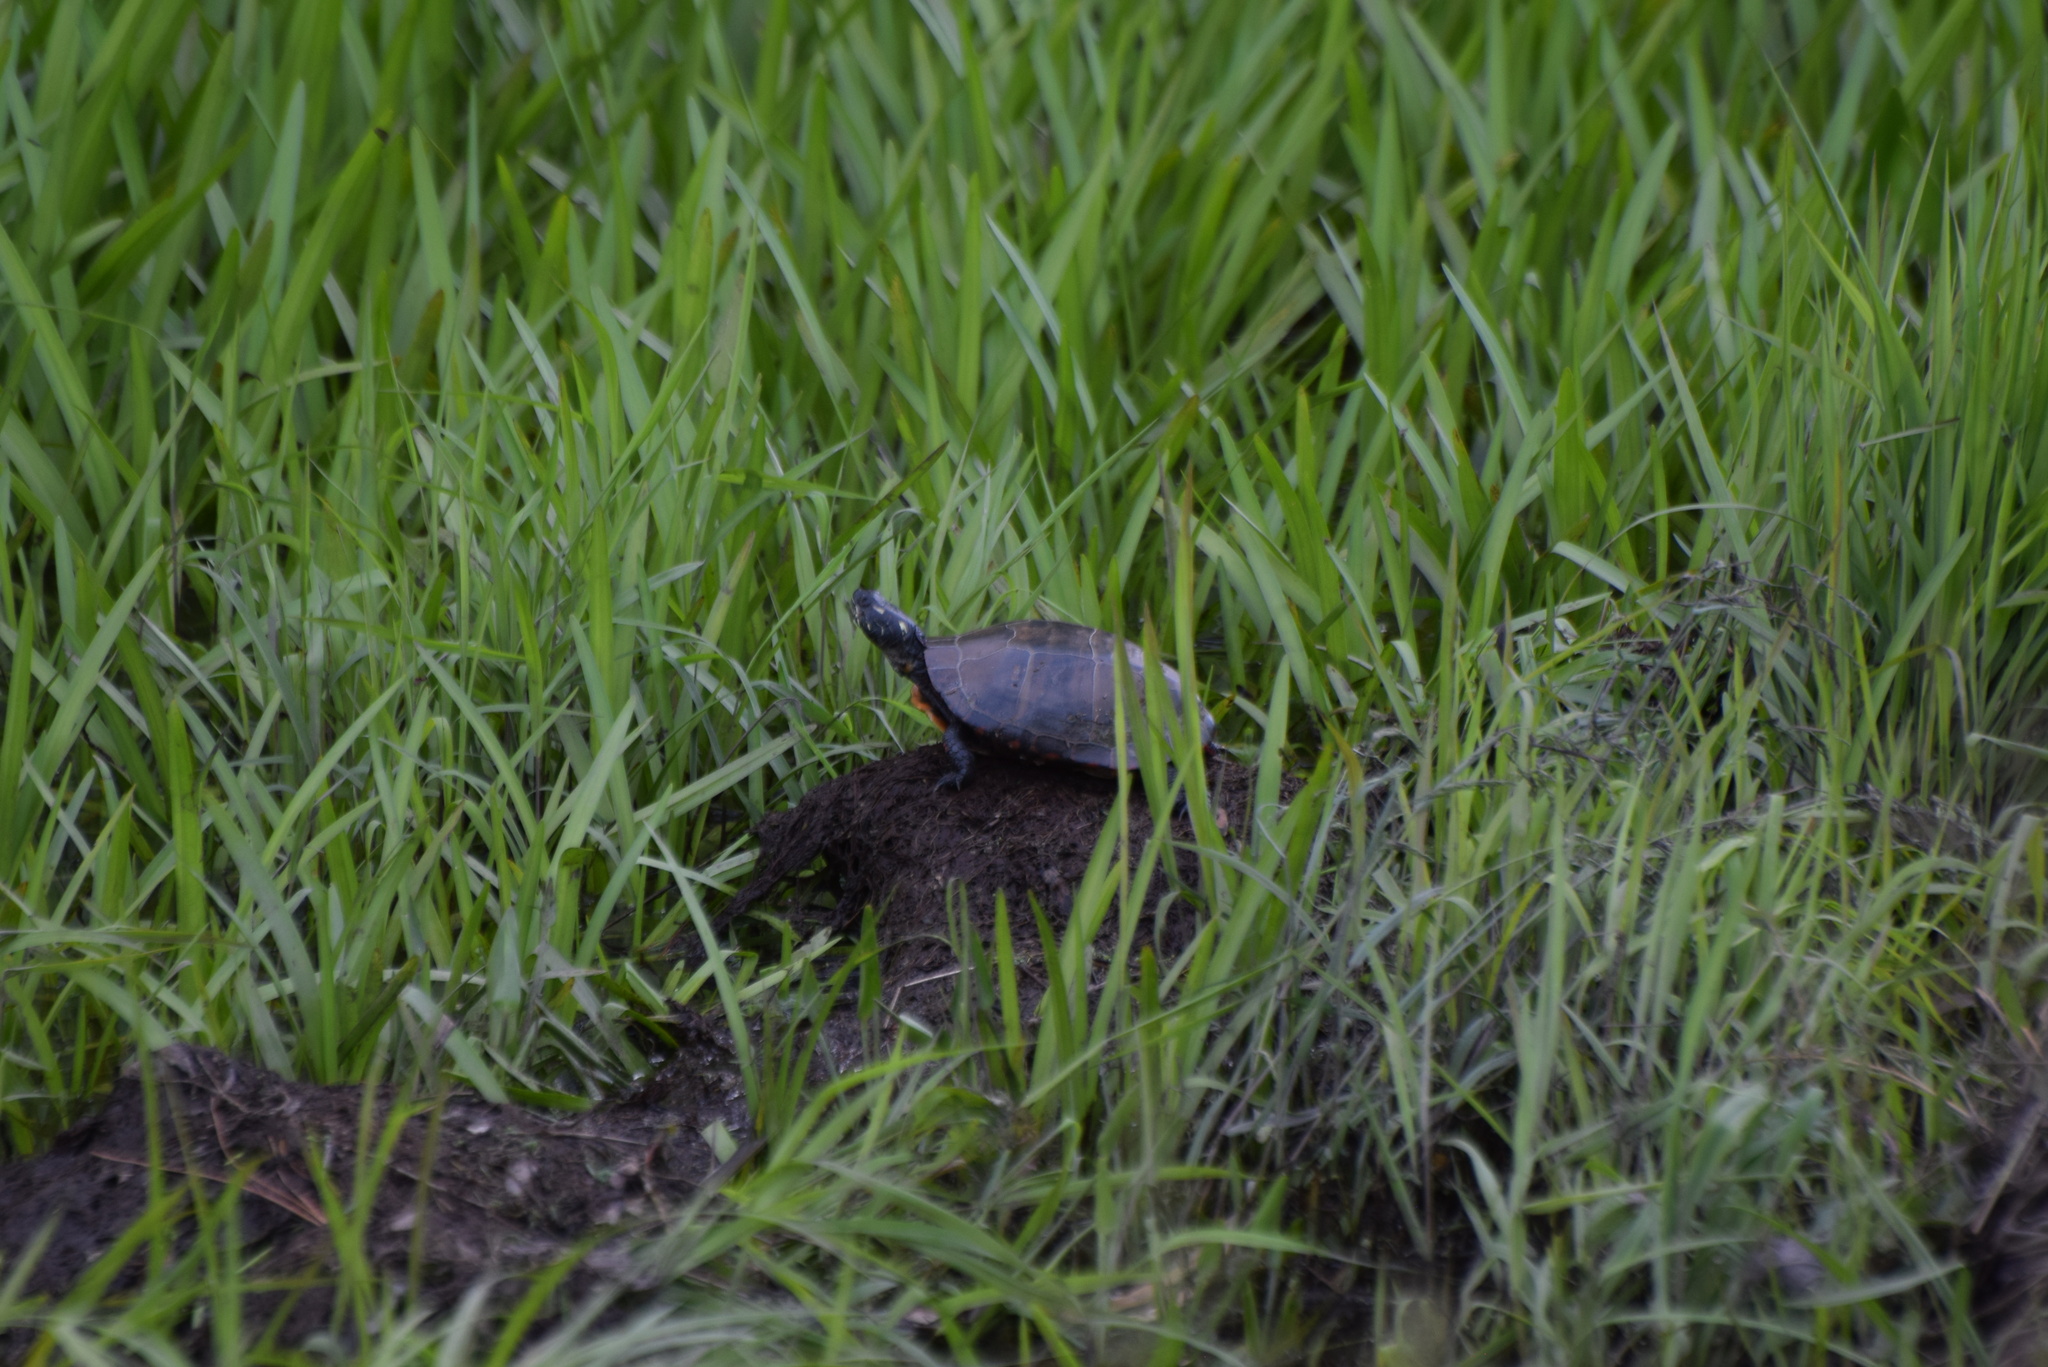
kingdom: Animalia
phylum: Chordata
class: Testudines
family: Emydidae
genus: Chrysemys
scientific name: Chrysemys picta
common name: Painted turtle
